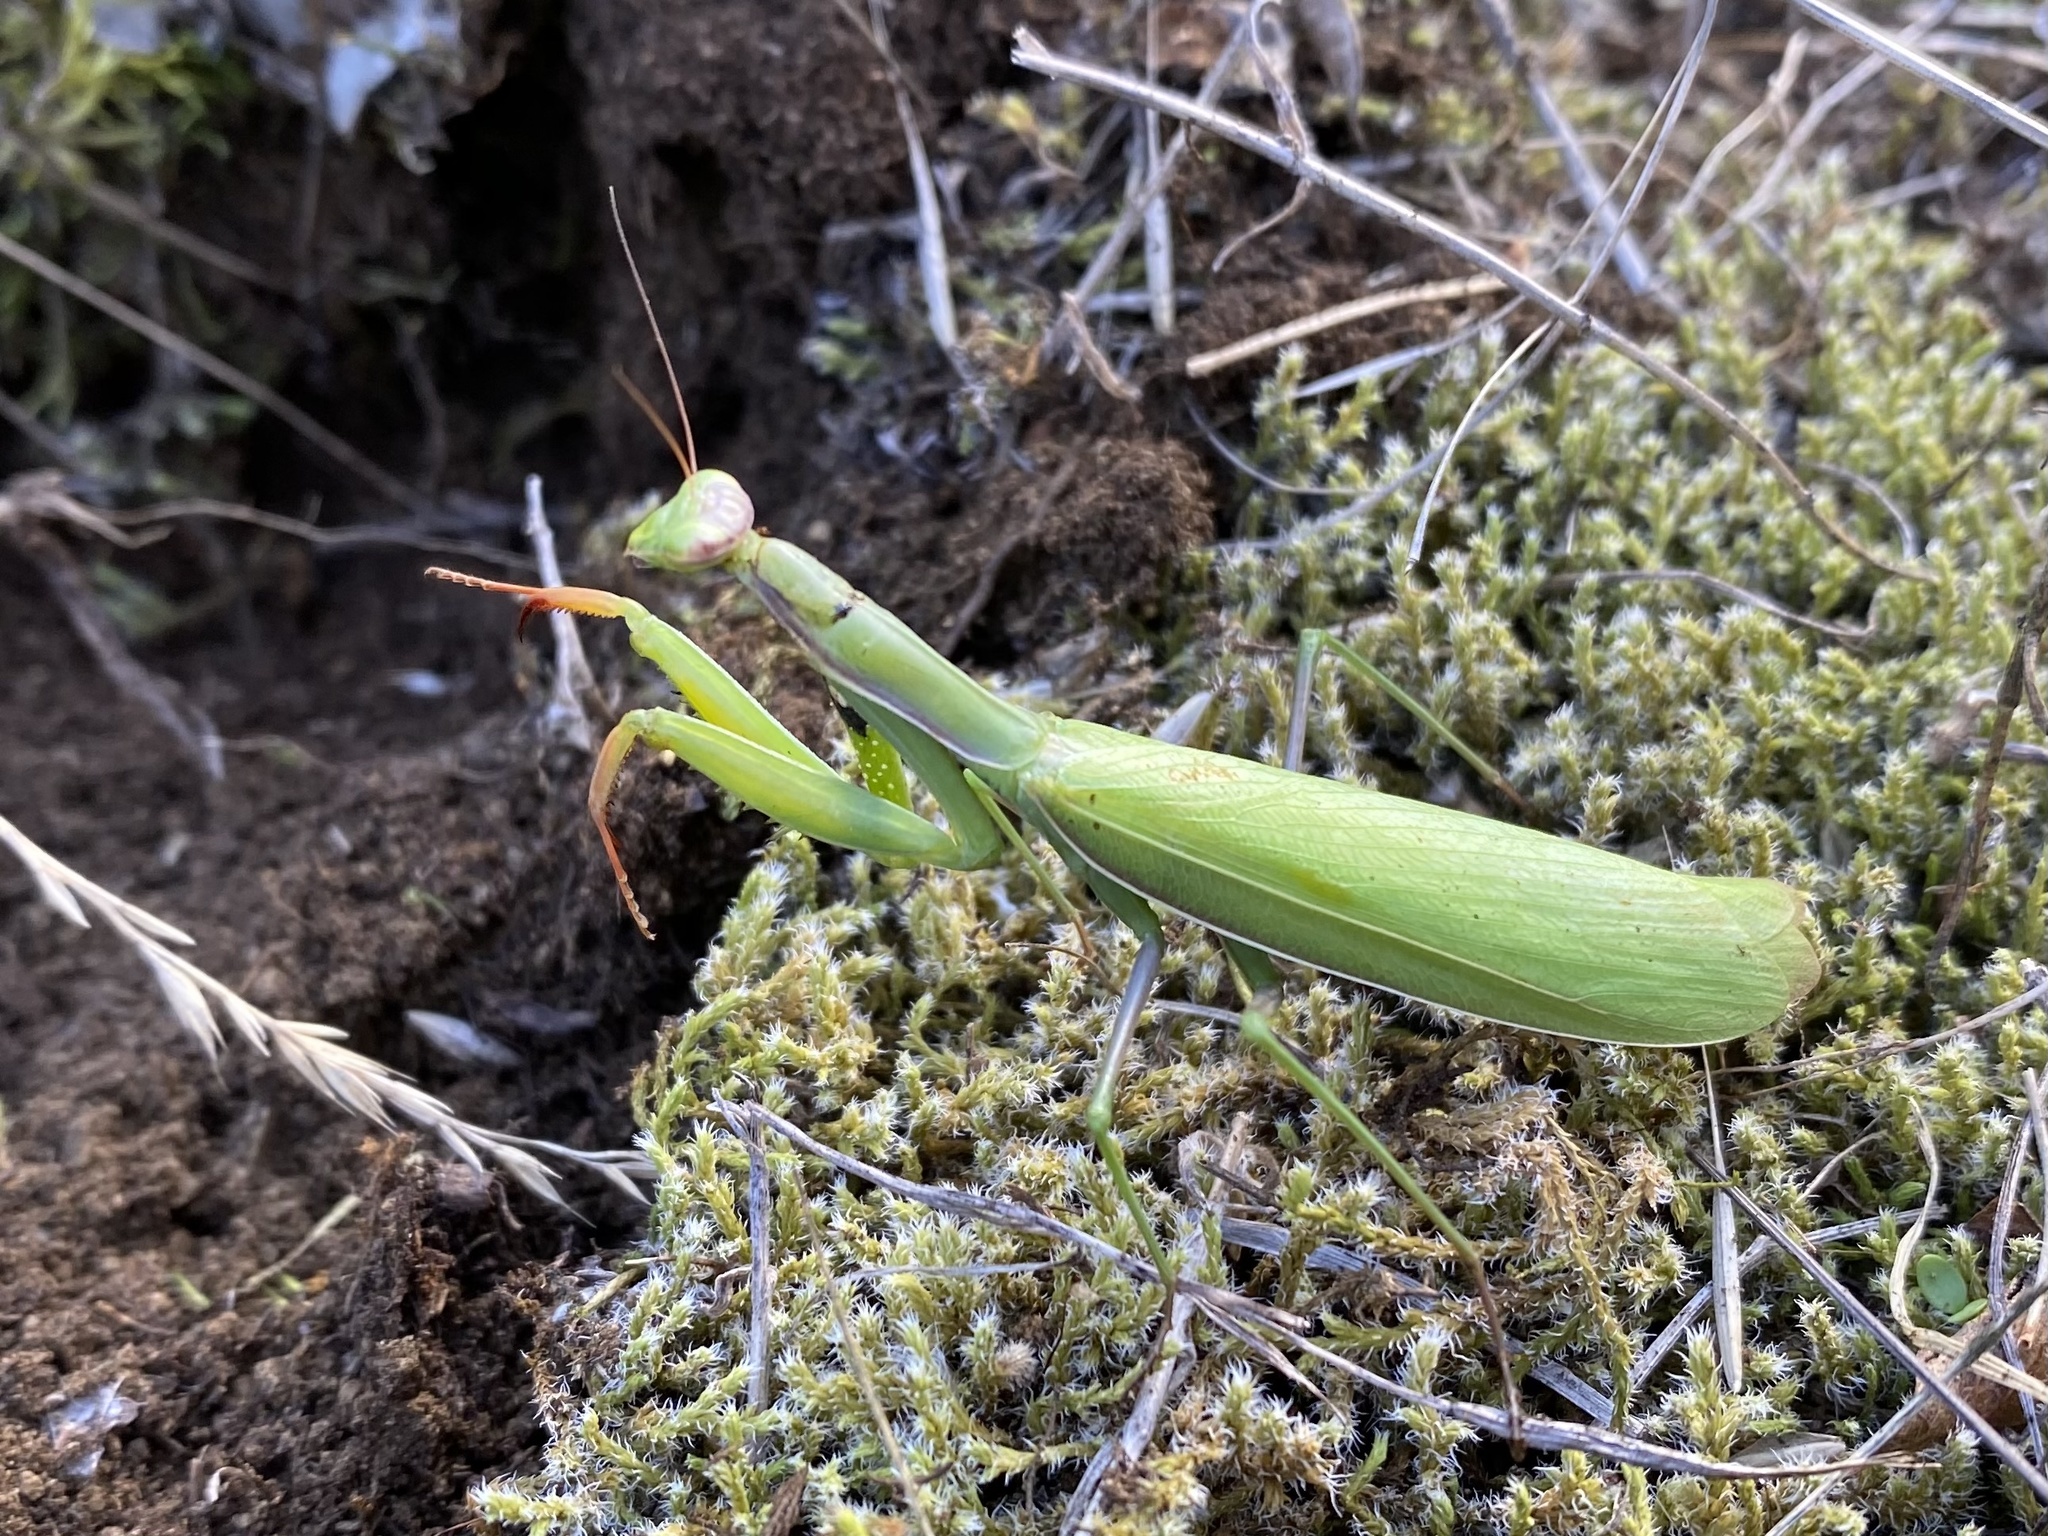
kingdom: Animalia
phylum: Arthropoda
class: Insecta
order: Mantodea
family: Mantidae
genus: Mantis
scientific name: Mantis religiosa
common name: Praying mantis
